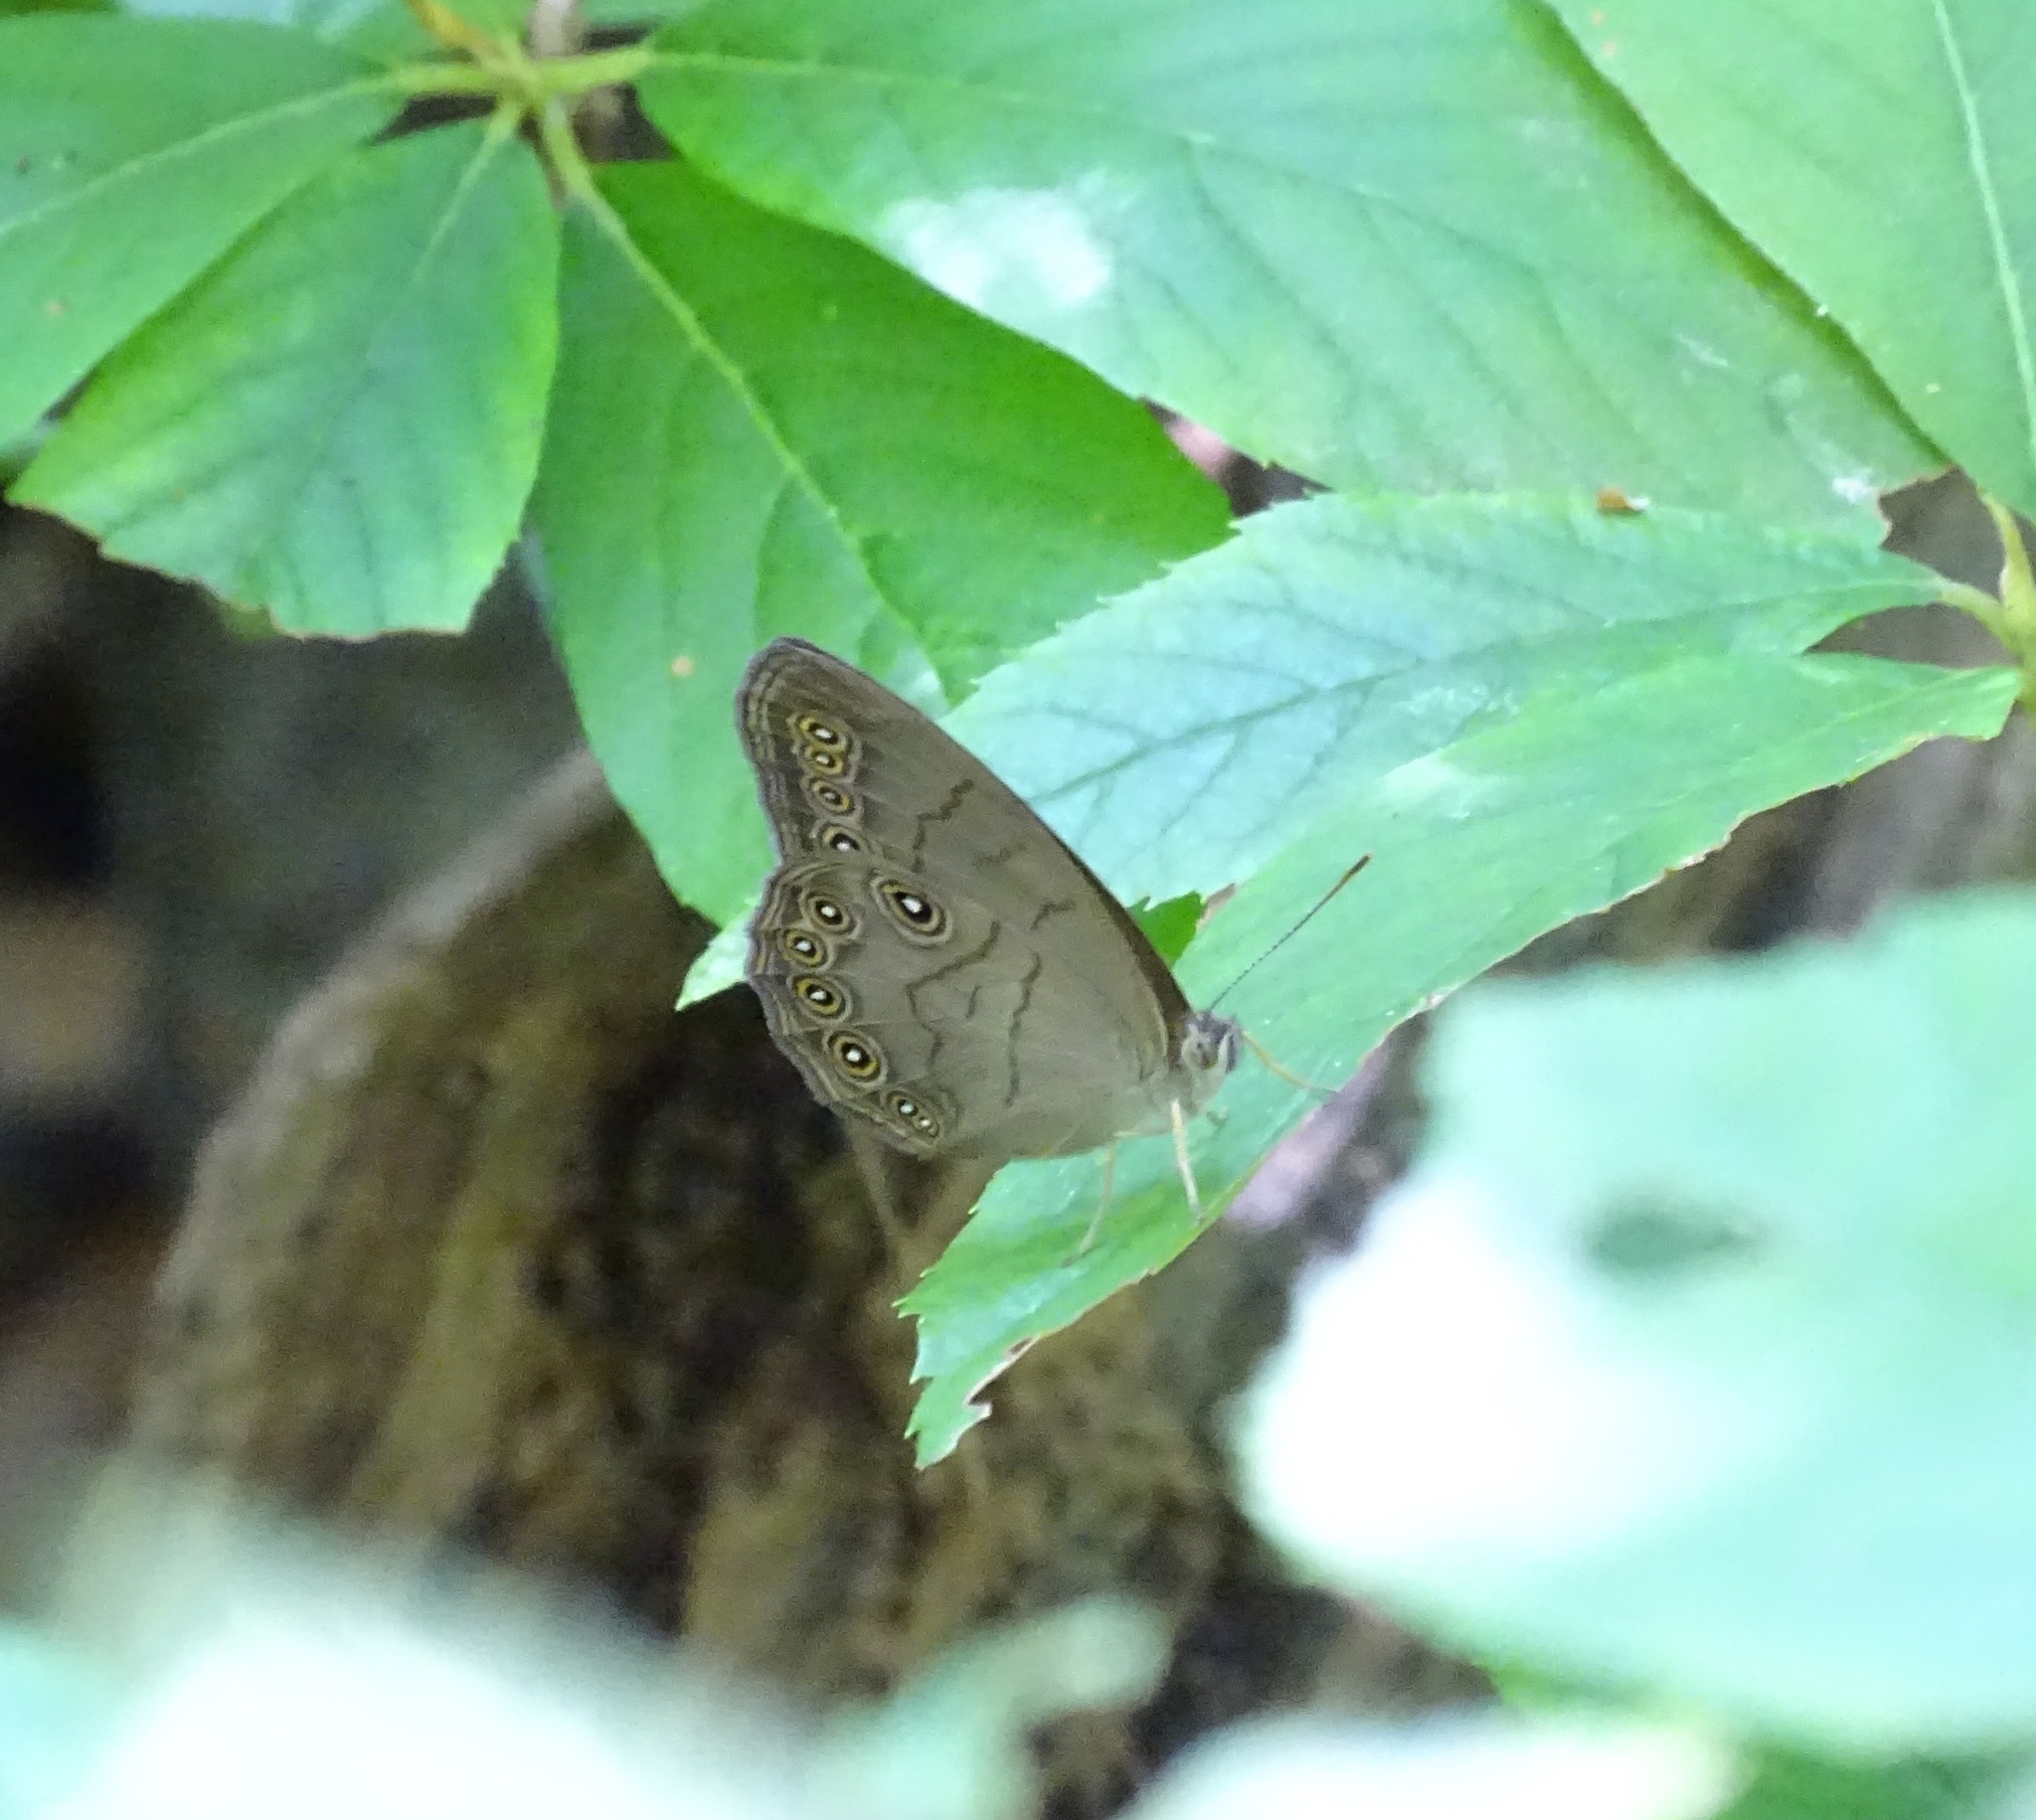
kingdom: Animalia
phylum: Arthropoda
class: Insecta
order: Lepidoptera
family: Nymphalidae
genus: Lethe
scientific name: Lethe eurydice
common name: Eyed brown
